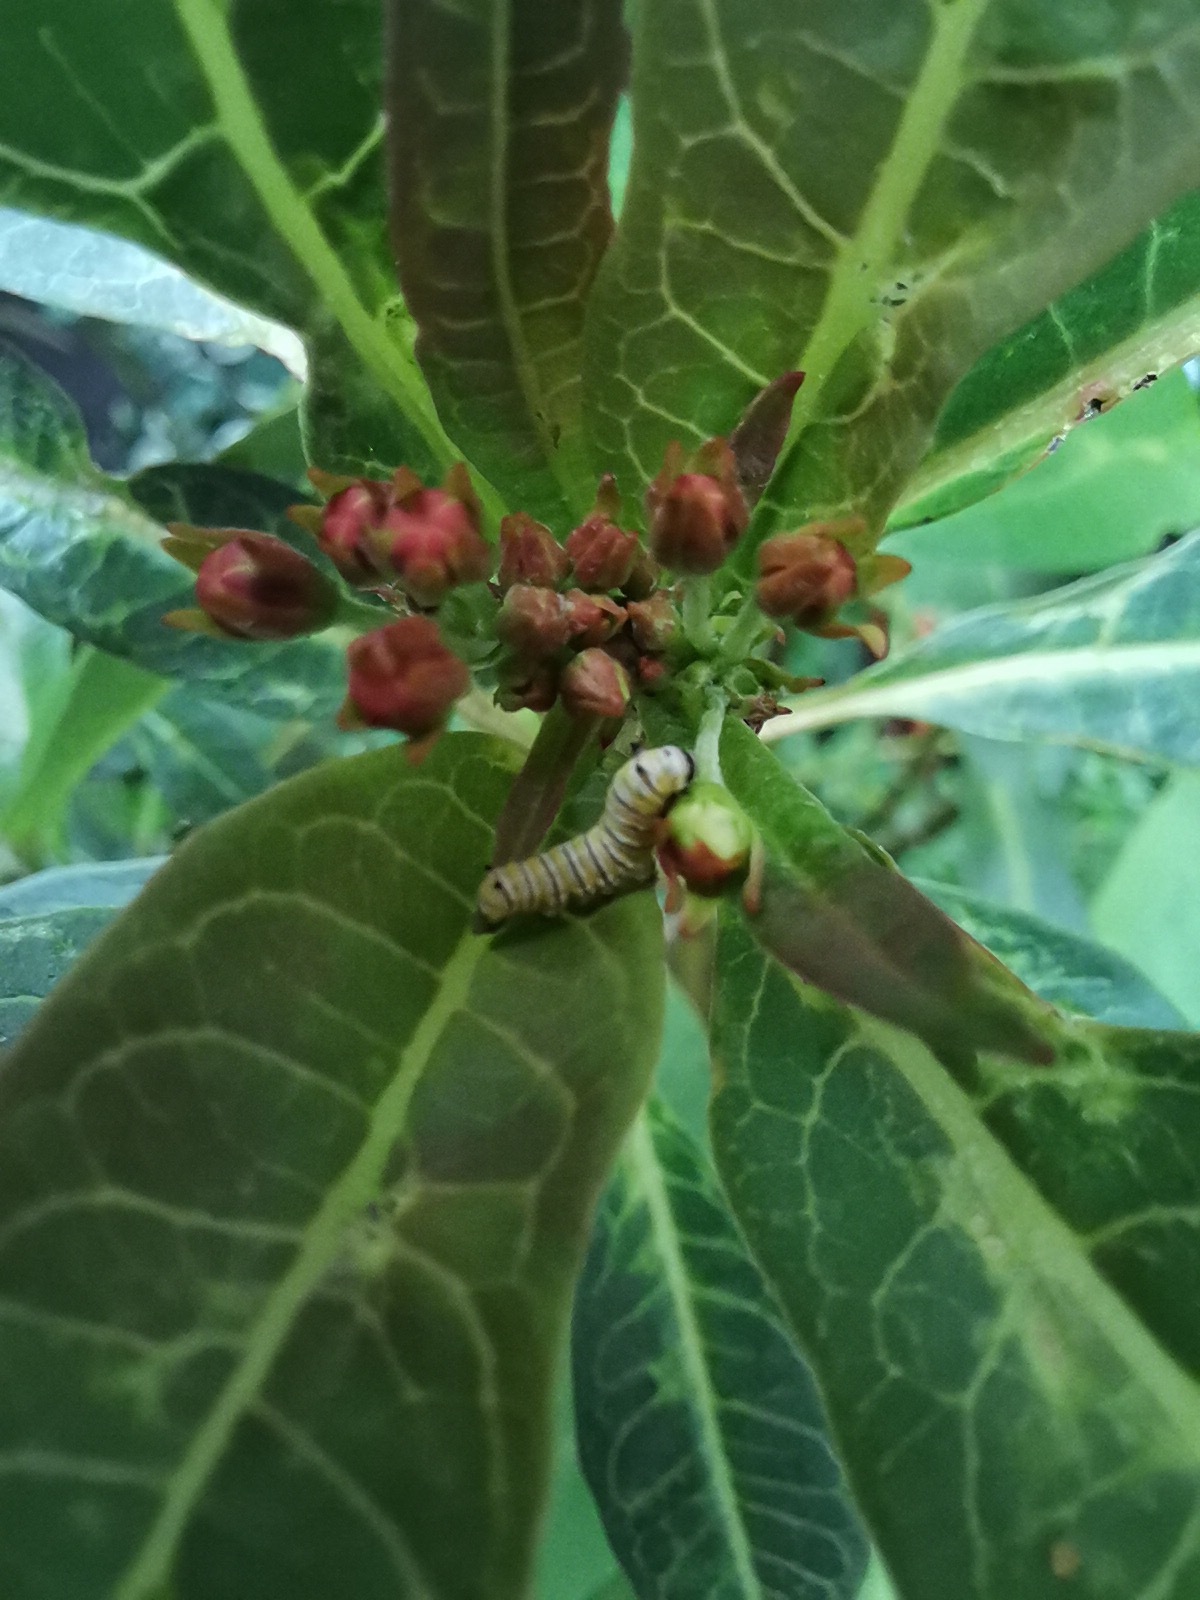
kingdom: Animalia
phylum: Arthropoda
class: Insecta
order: Lepidoptera
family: Nymphalidae
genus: Danaus
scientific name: Danaus plexippus
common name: Monarch
